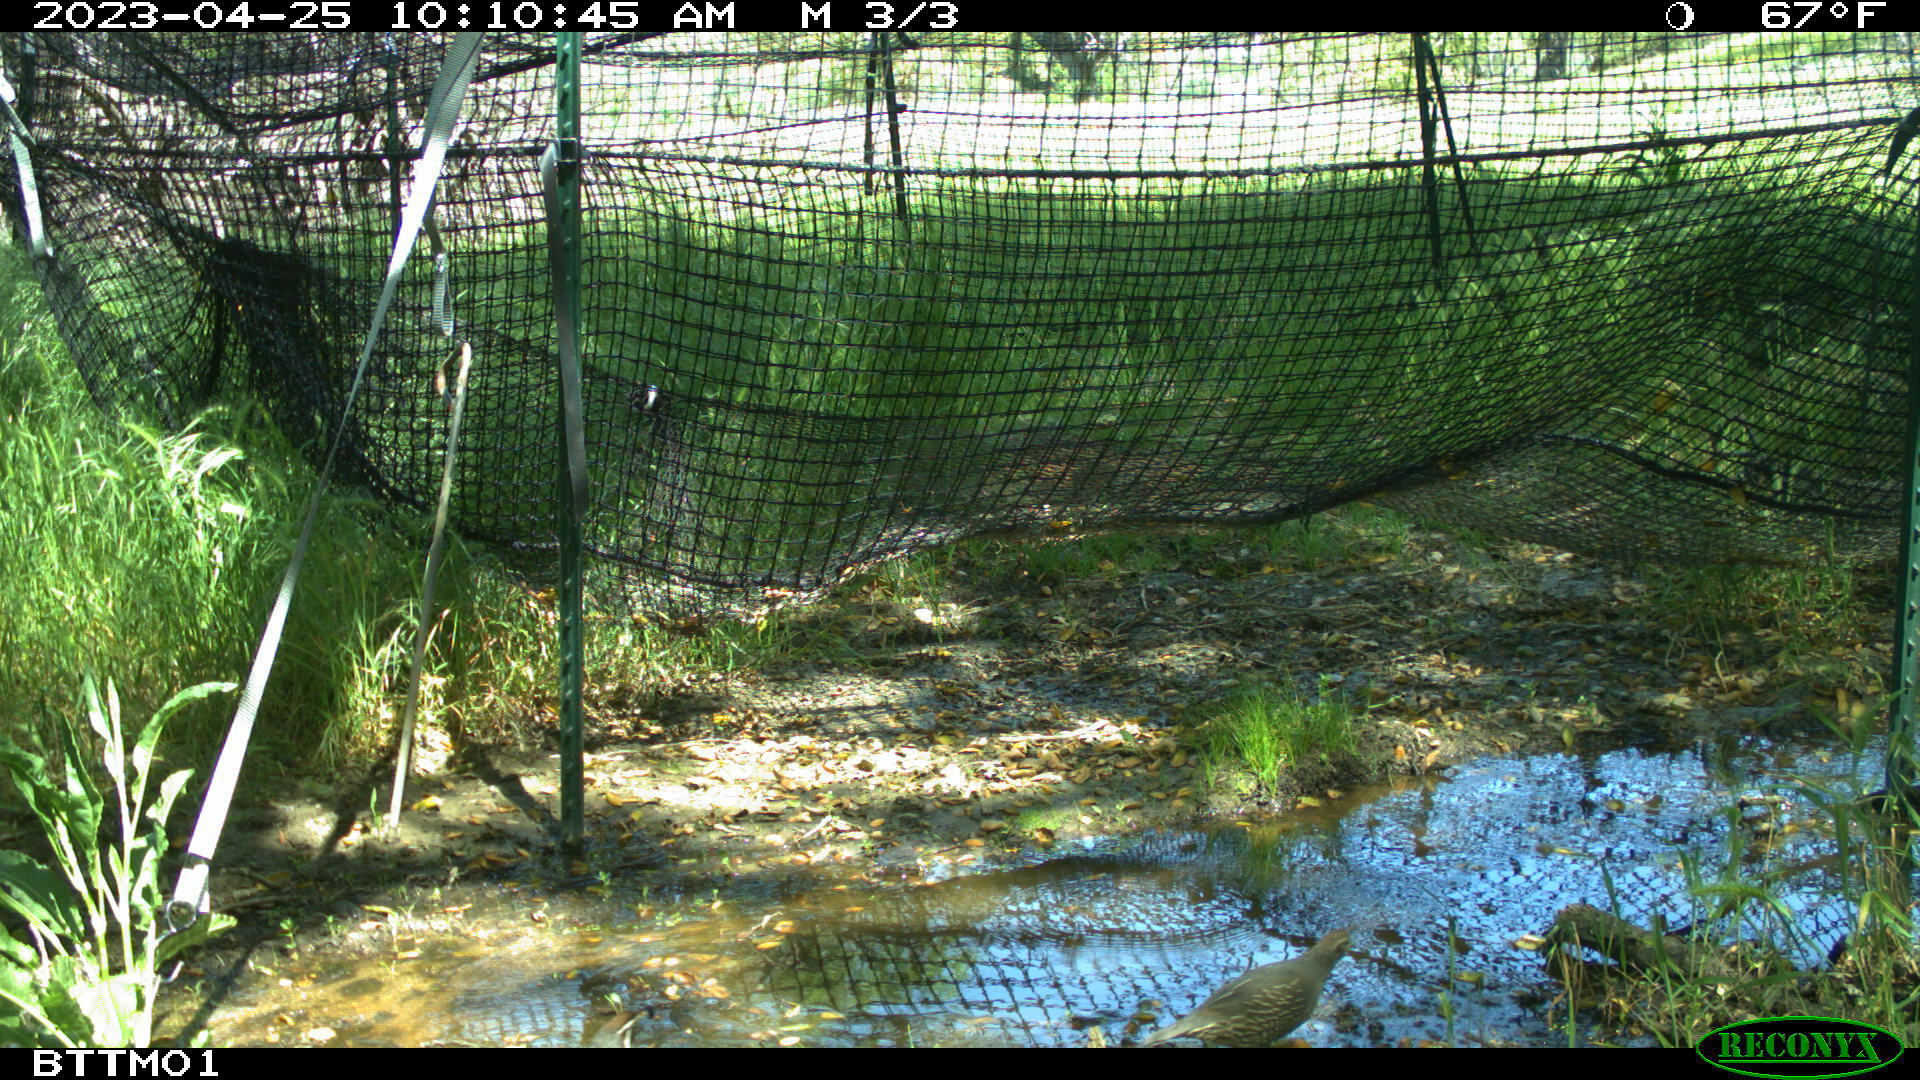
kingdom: Animalia
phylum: Chordata
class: Aves
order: Galliformes
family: Odontophoridae
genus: Callipepla
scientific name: Callipepla californica
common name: California quail
